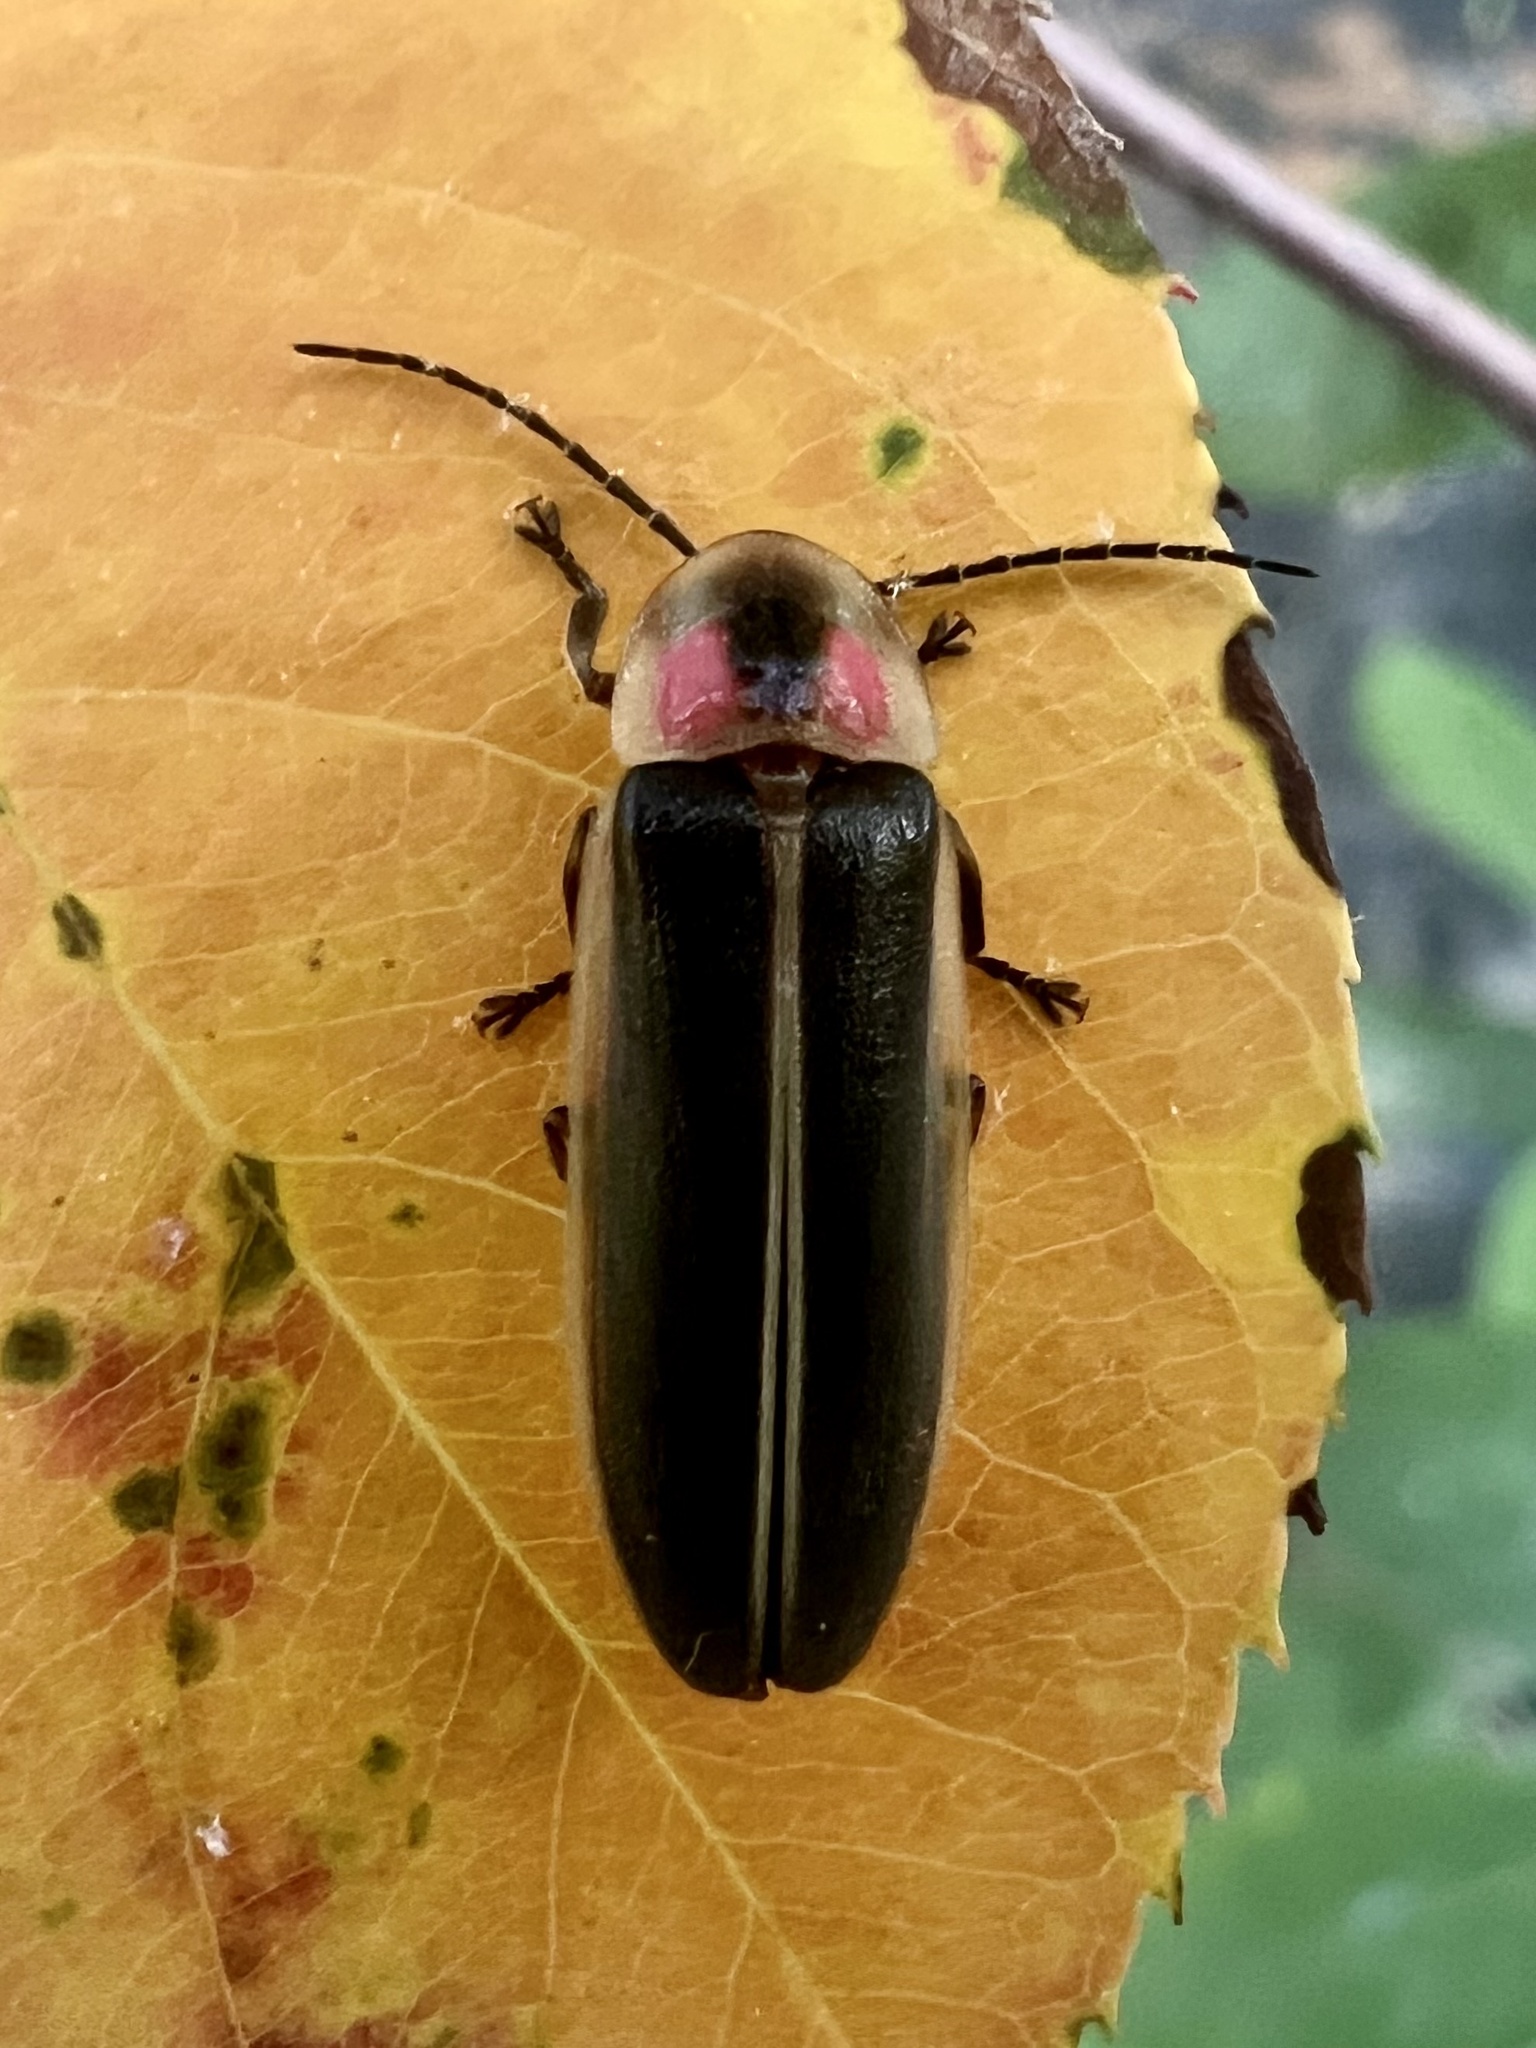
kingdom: Animalia
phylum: Arthropoda
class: Insecta
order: Coleoptera
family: Lampyridae
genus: Photinus
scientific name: Photinus pyralis
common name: Big dipper firefly
